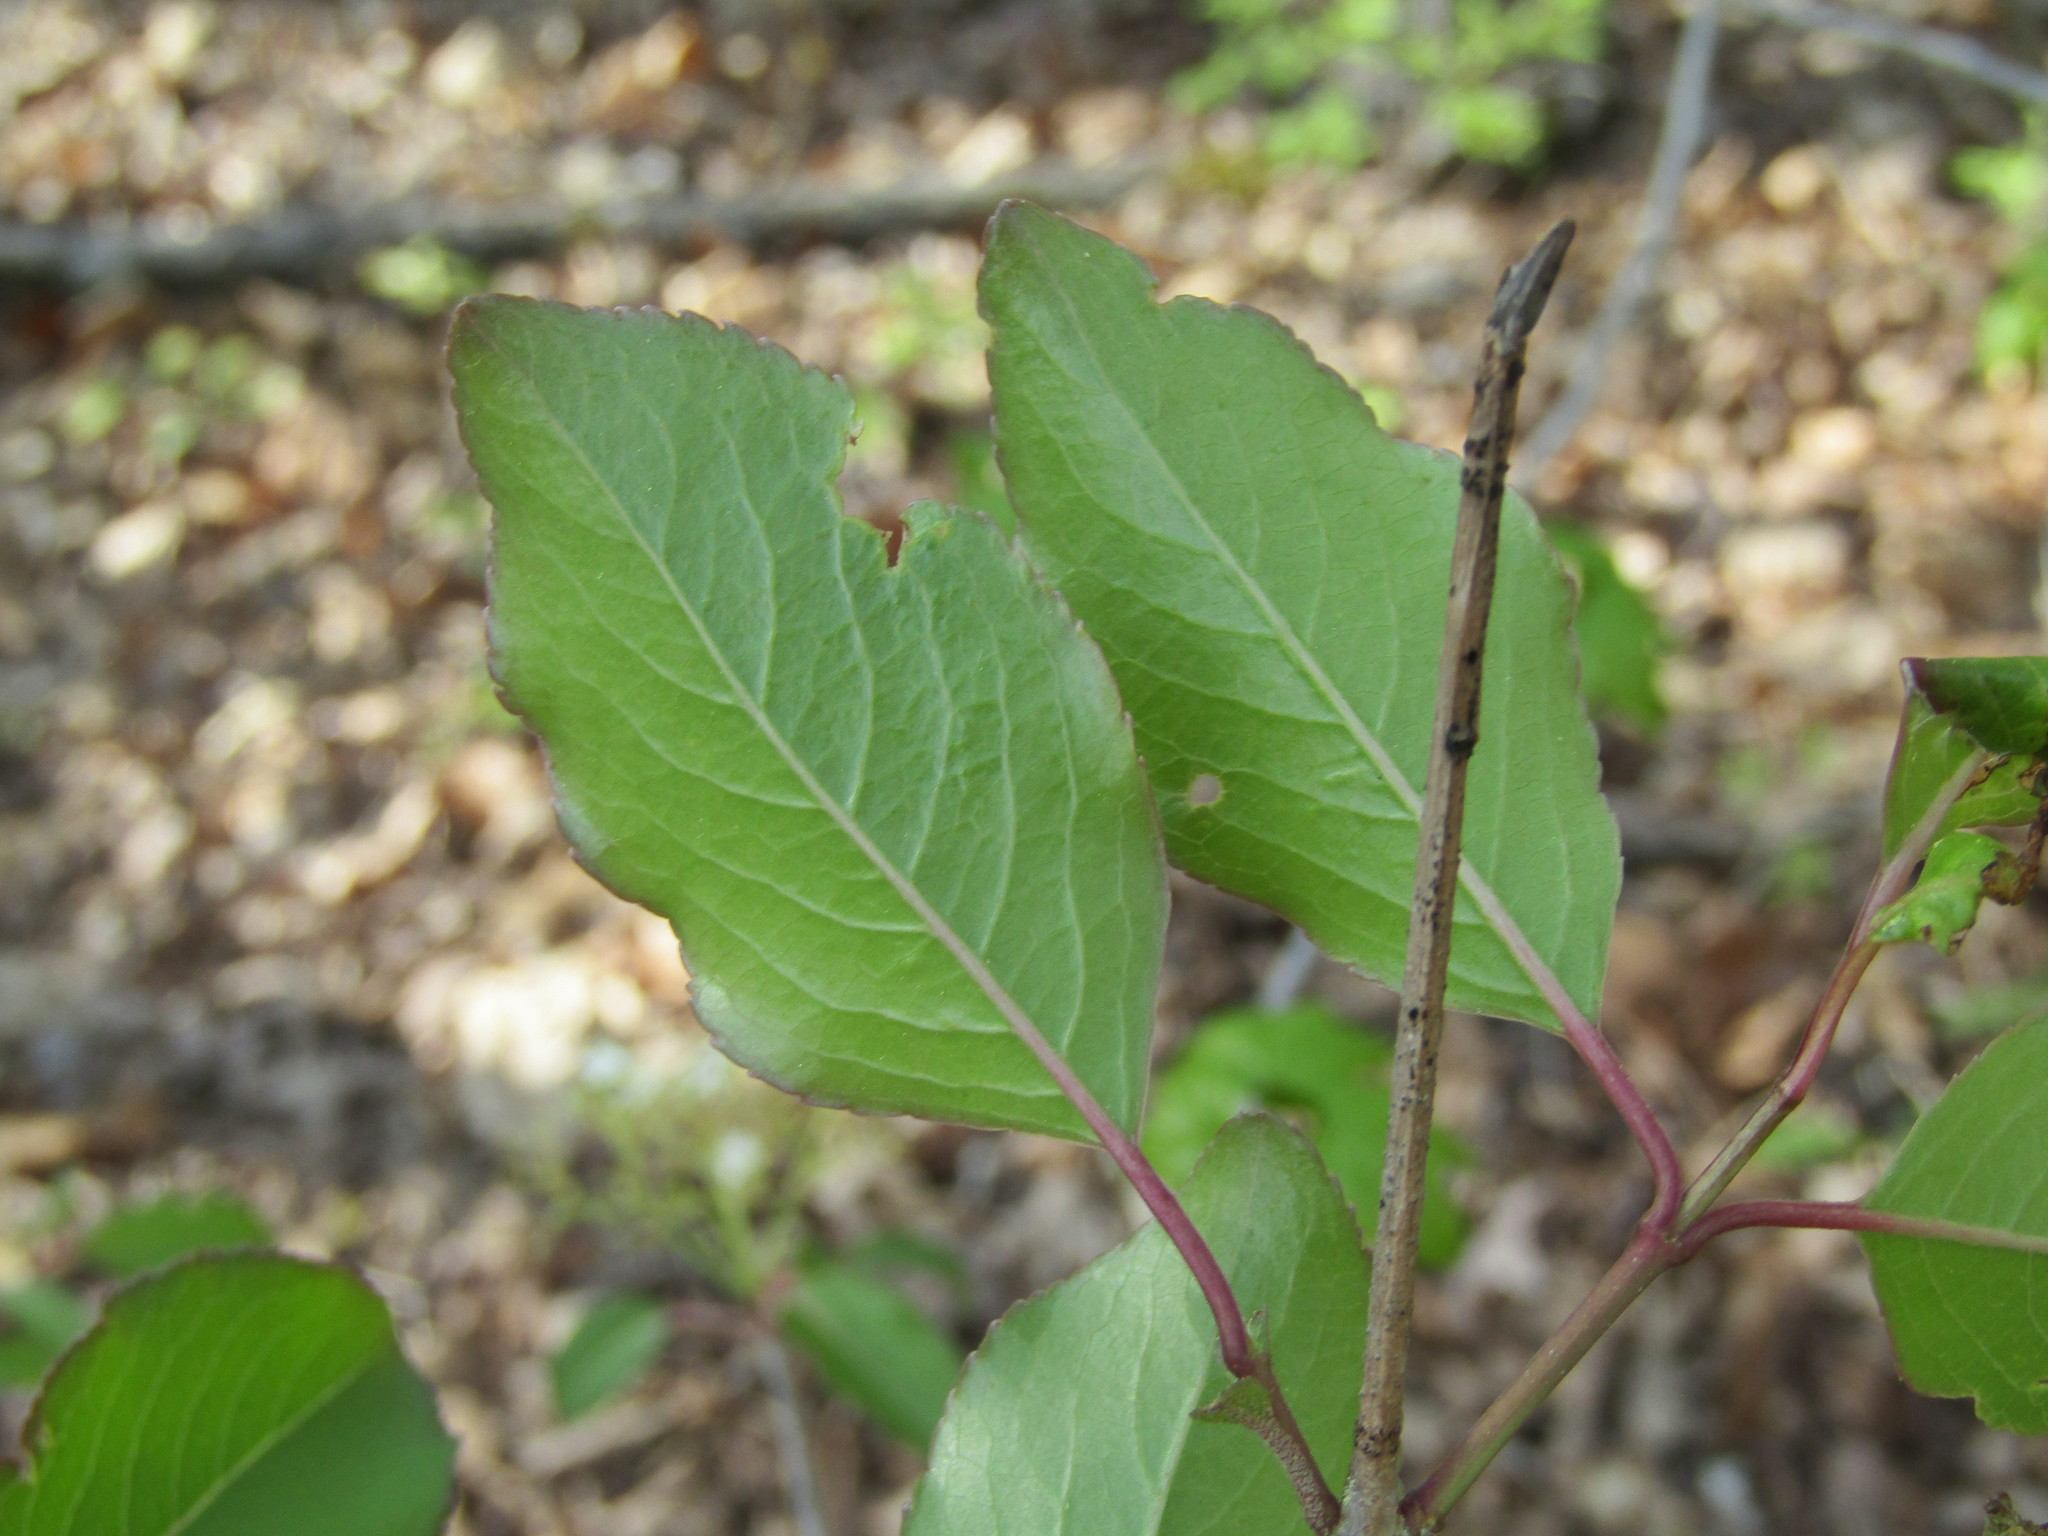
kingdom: Plantae
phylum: Tracheophyta
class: Magnoliopsida
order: Dipsacales
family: Viburnaceae
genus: Viburnum
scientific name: Viburnum prunifolium
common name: Black haw
